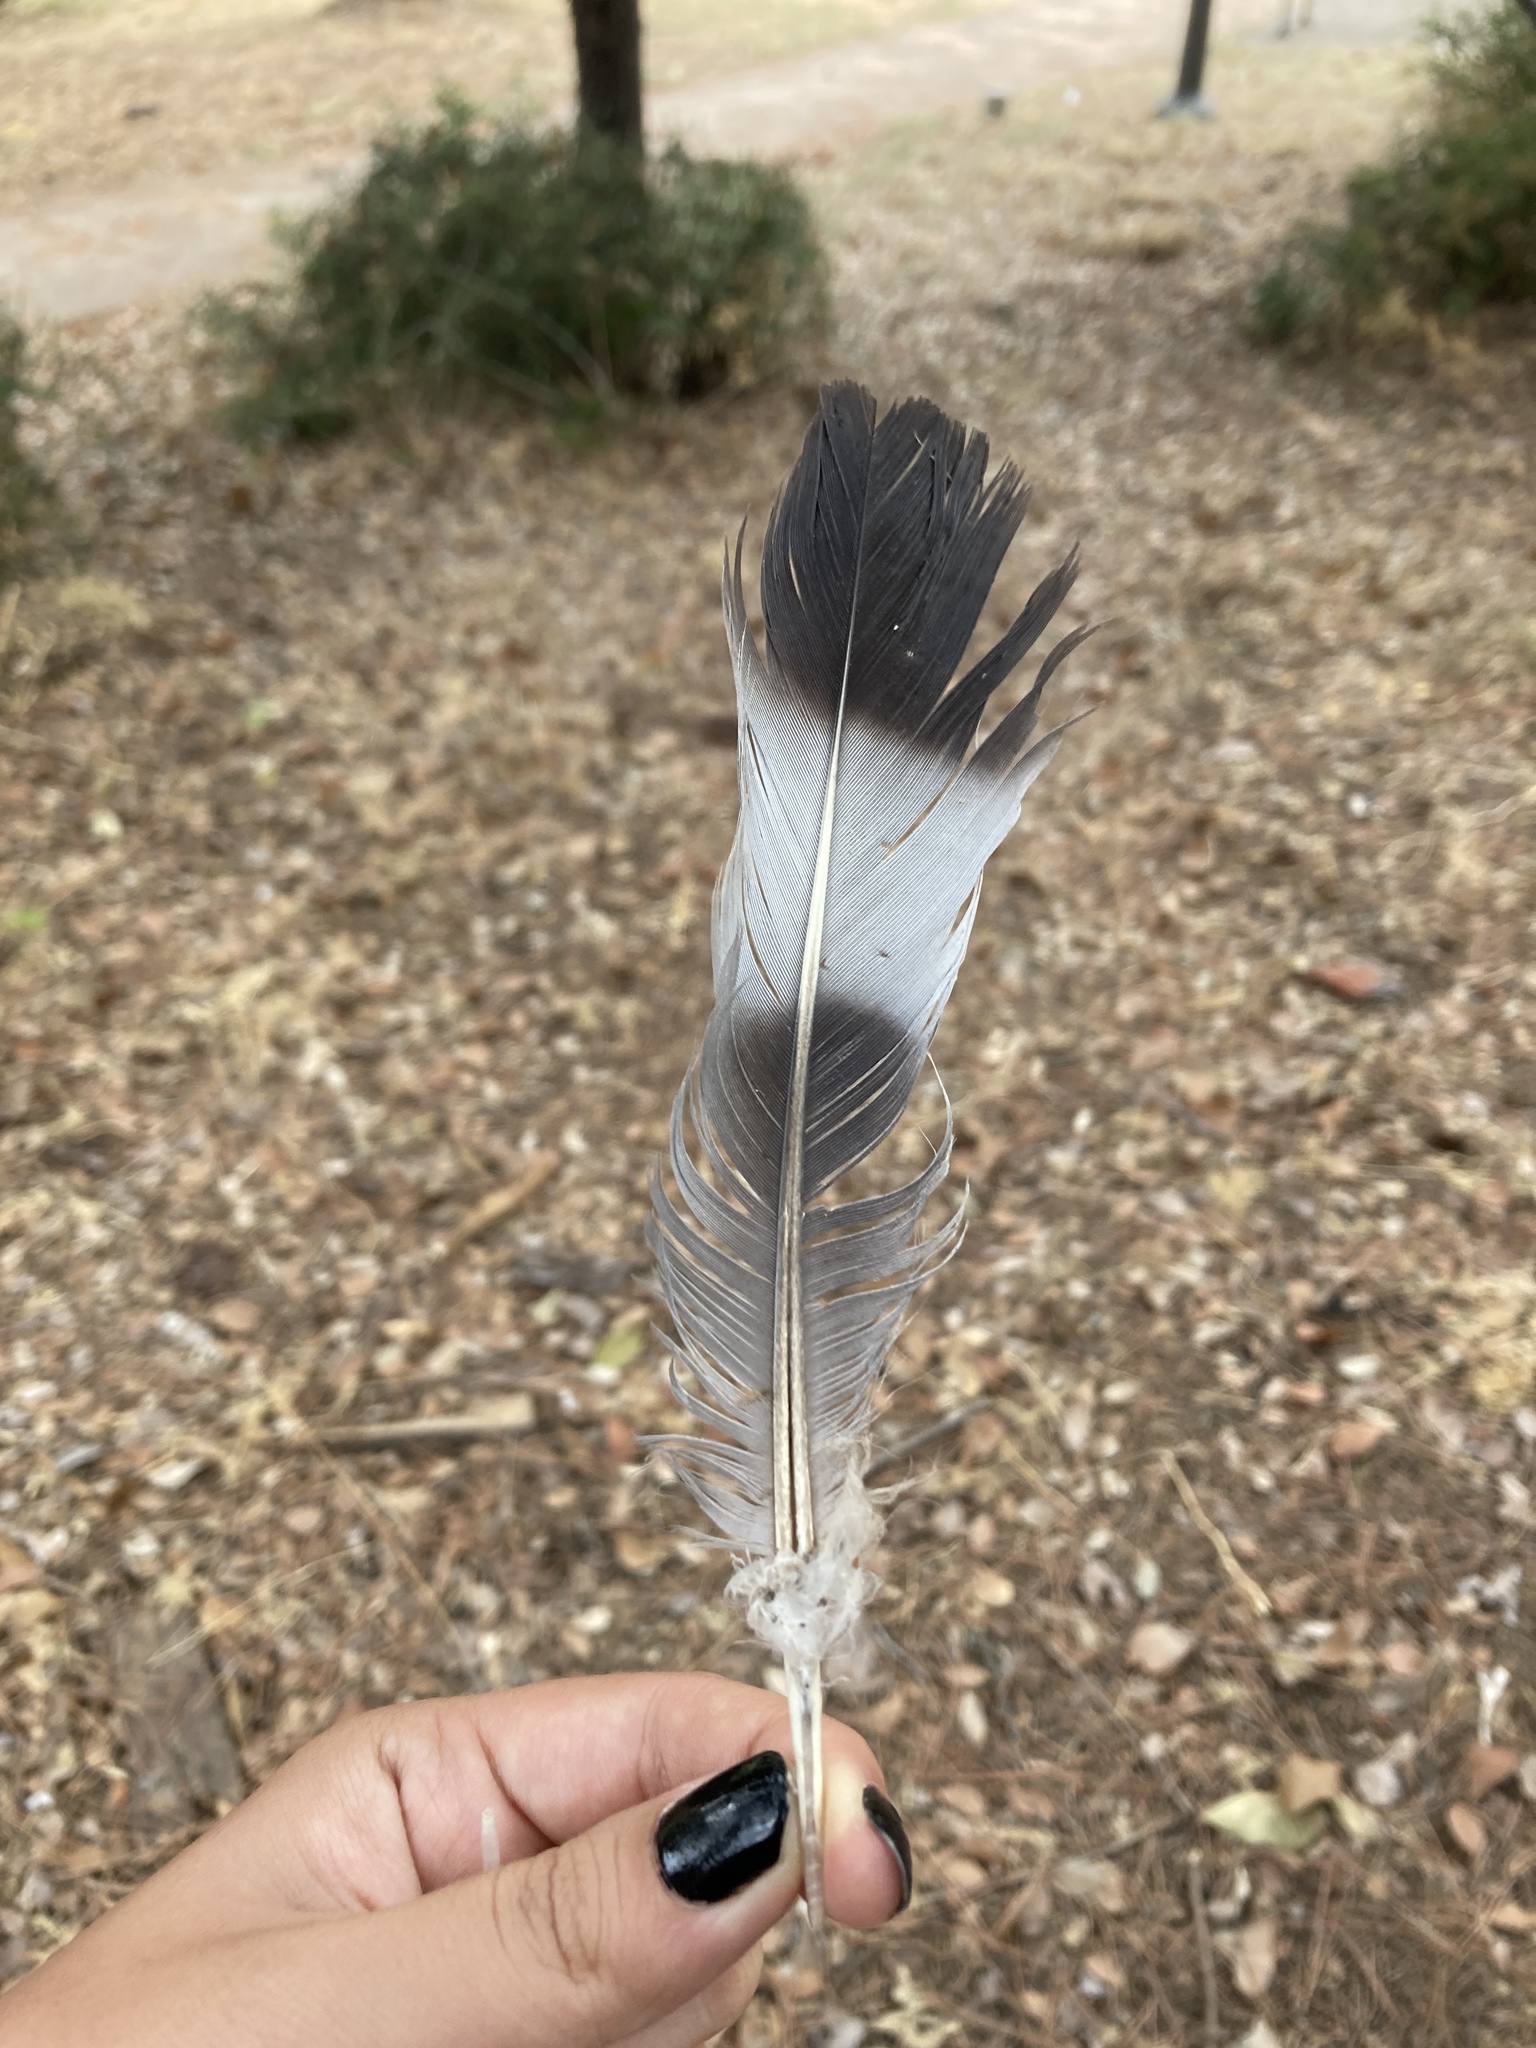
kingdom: Animalia
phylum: Chordata
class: Aves
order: Columbiformes
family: Columbidae
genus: Columba
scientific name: Columba palumbus
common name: Common wood pigeon
